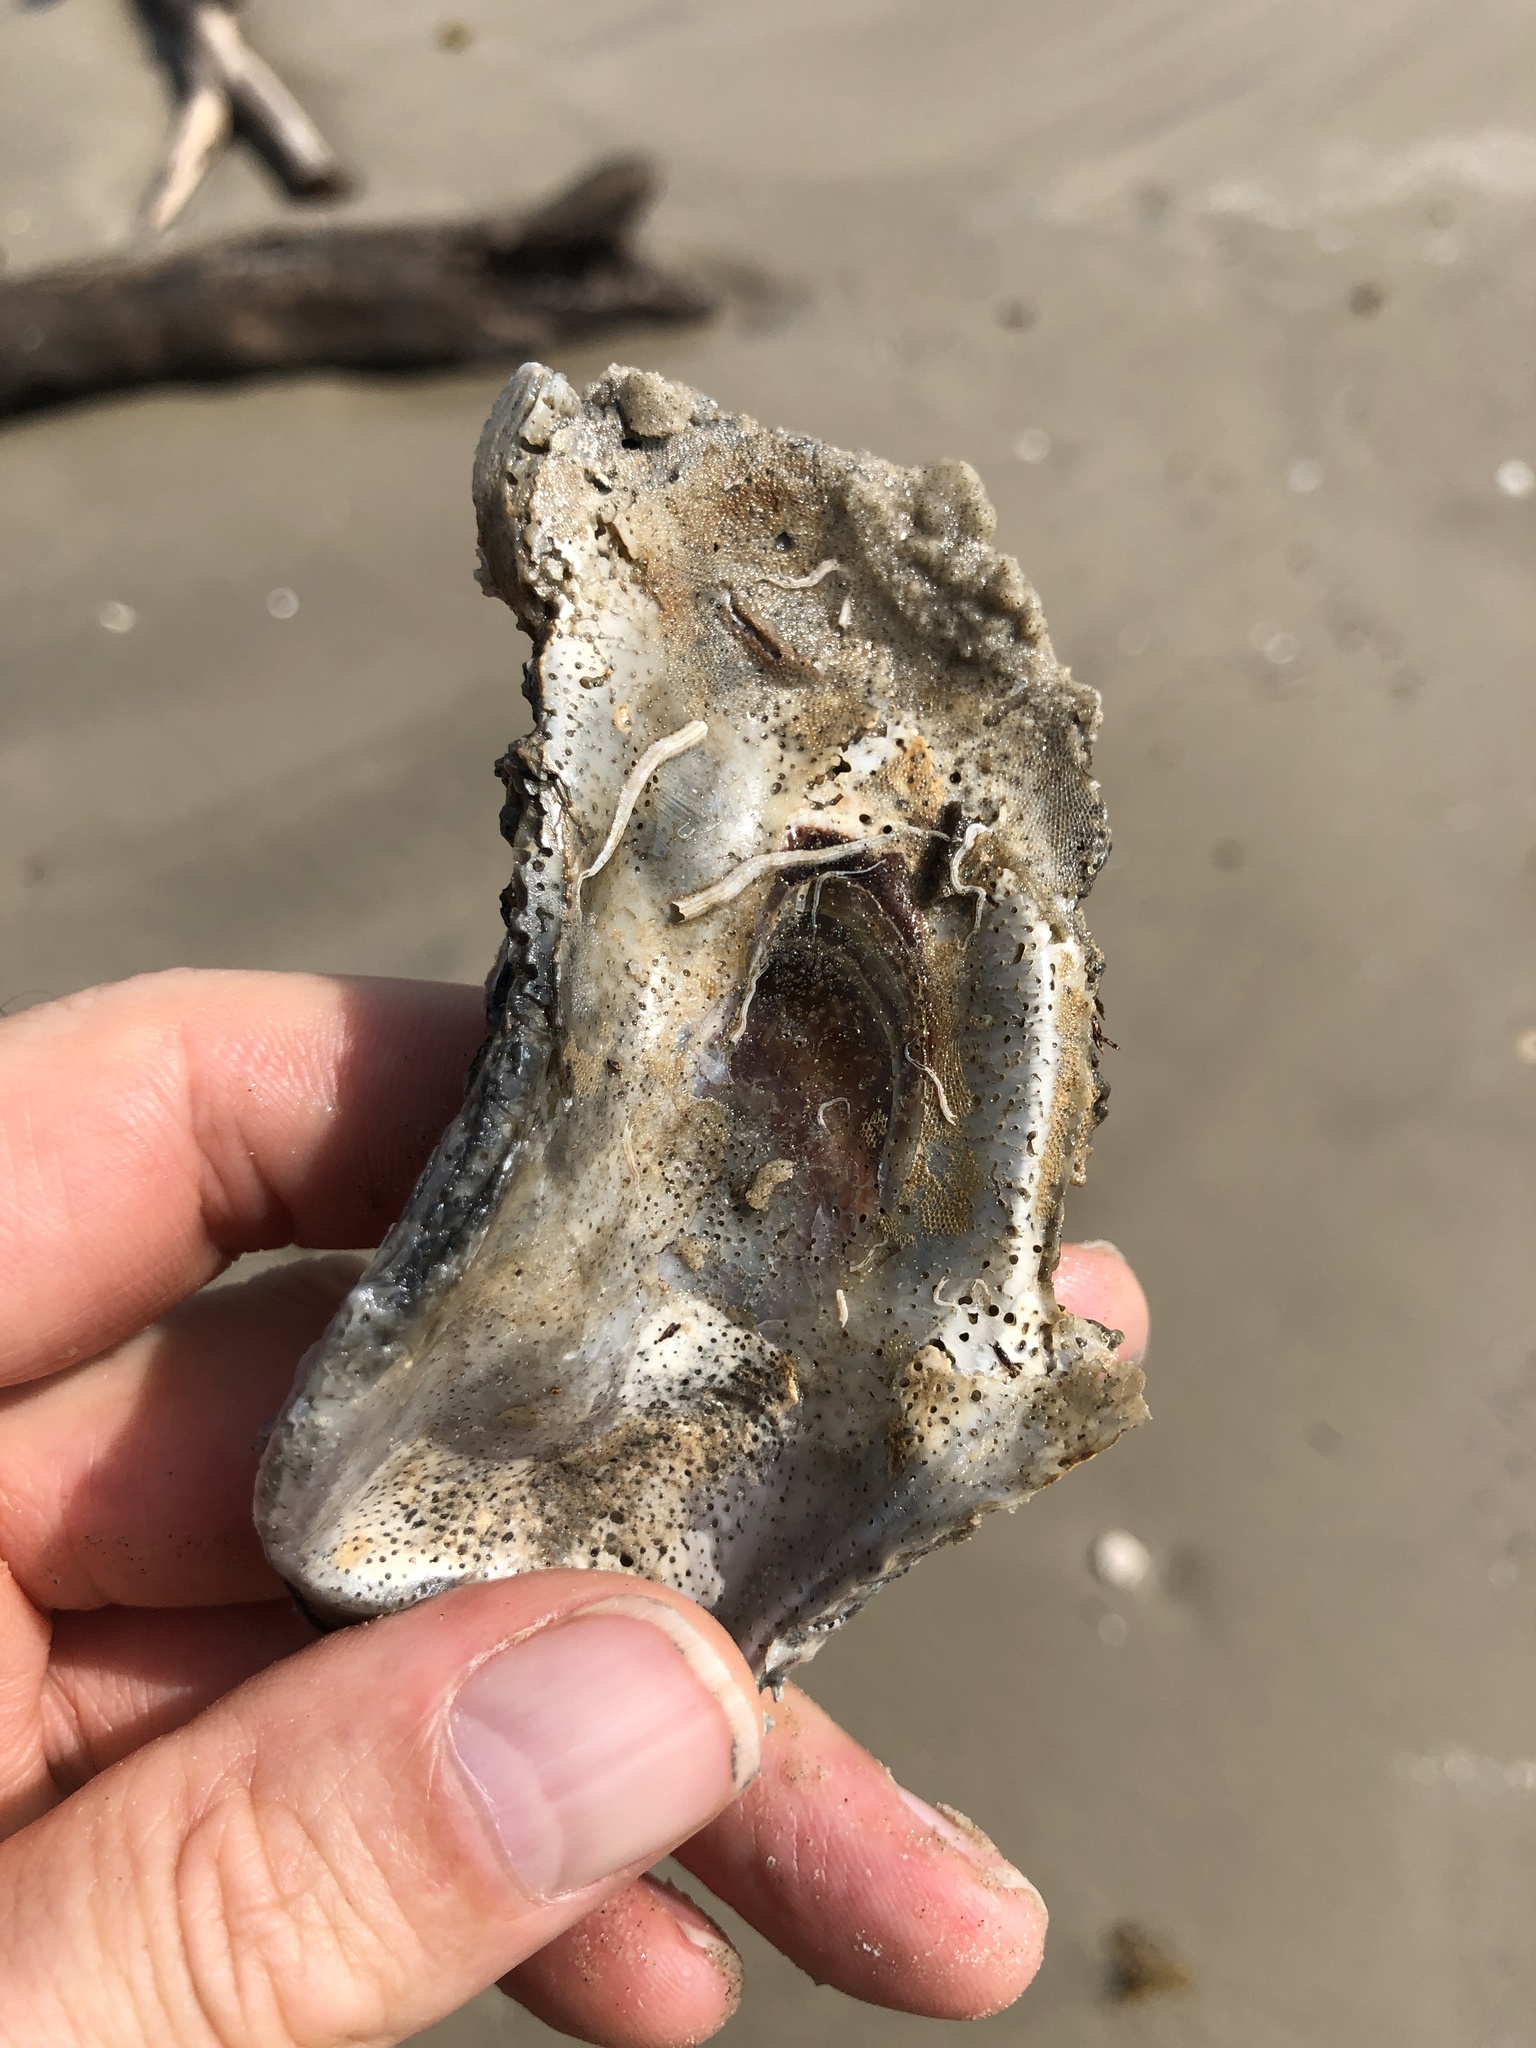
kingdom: Animalia
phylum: Mollusca
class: Bivalvia
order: Ostreida
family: Ostreidae
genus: Crassostrea
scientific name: Crassostrea virginica
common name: American oyster
